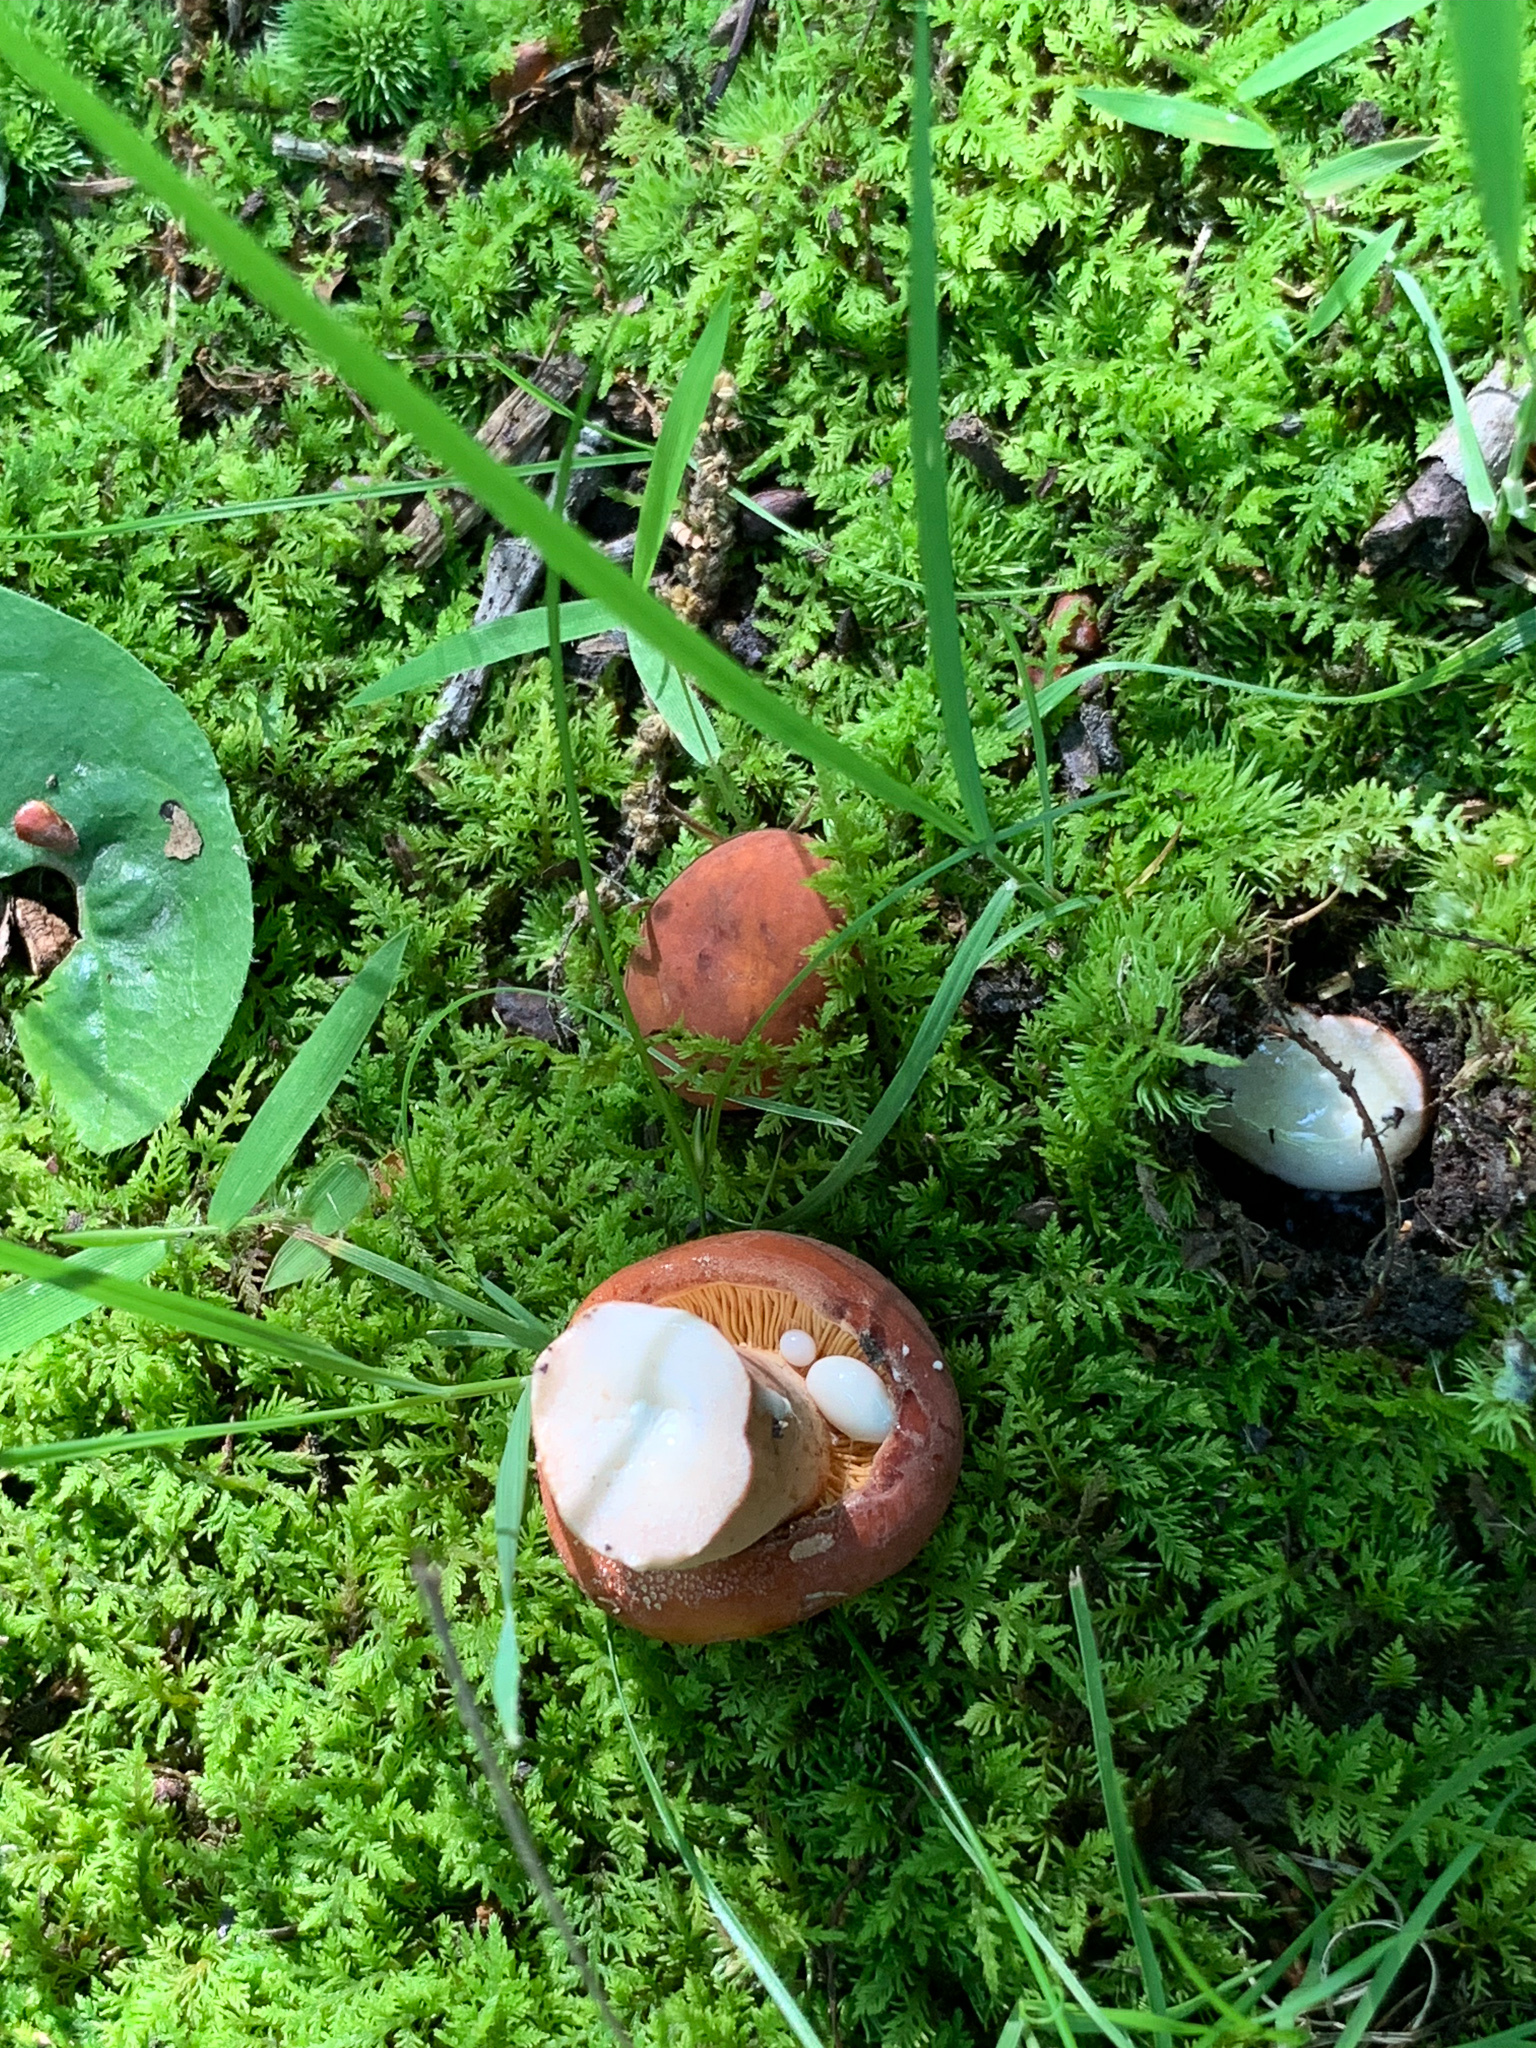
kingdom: Fungi
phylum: Basidiomycota
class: Agaricomycetes
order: Russulales
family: Russulaceae
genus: Lactarius
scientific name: Lactarius corrugis
